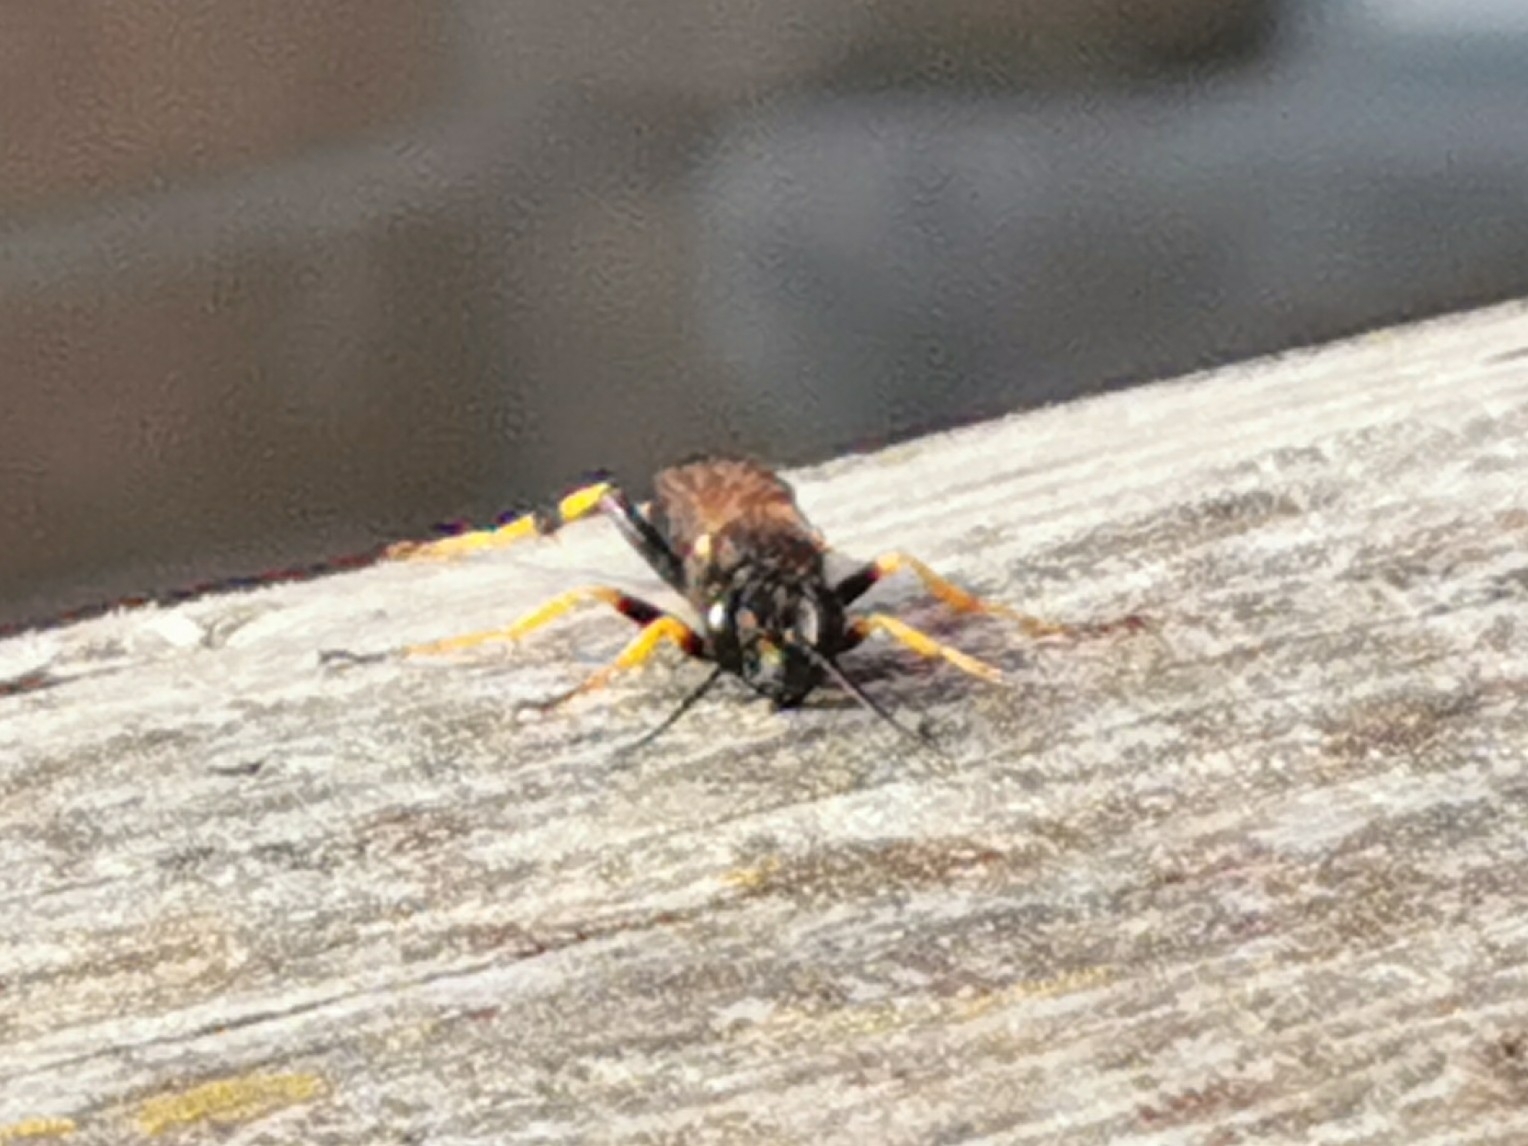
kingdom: Animalia
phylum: Arthropoda
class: Insecta
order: Hymenoptera
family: Sphecidae
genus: Sceliphron
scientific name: Sceliphron caementarium
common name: Mud dauber
